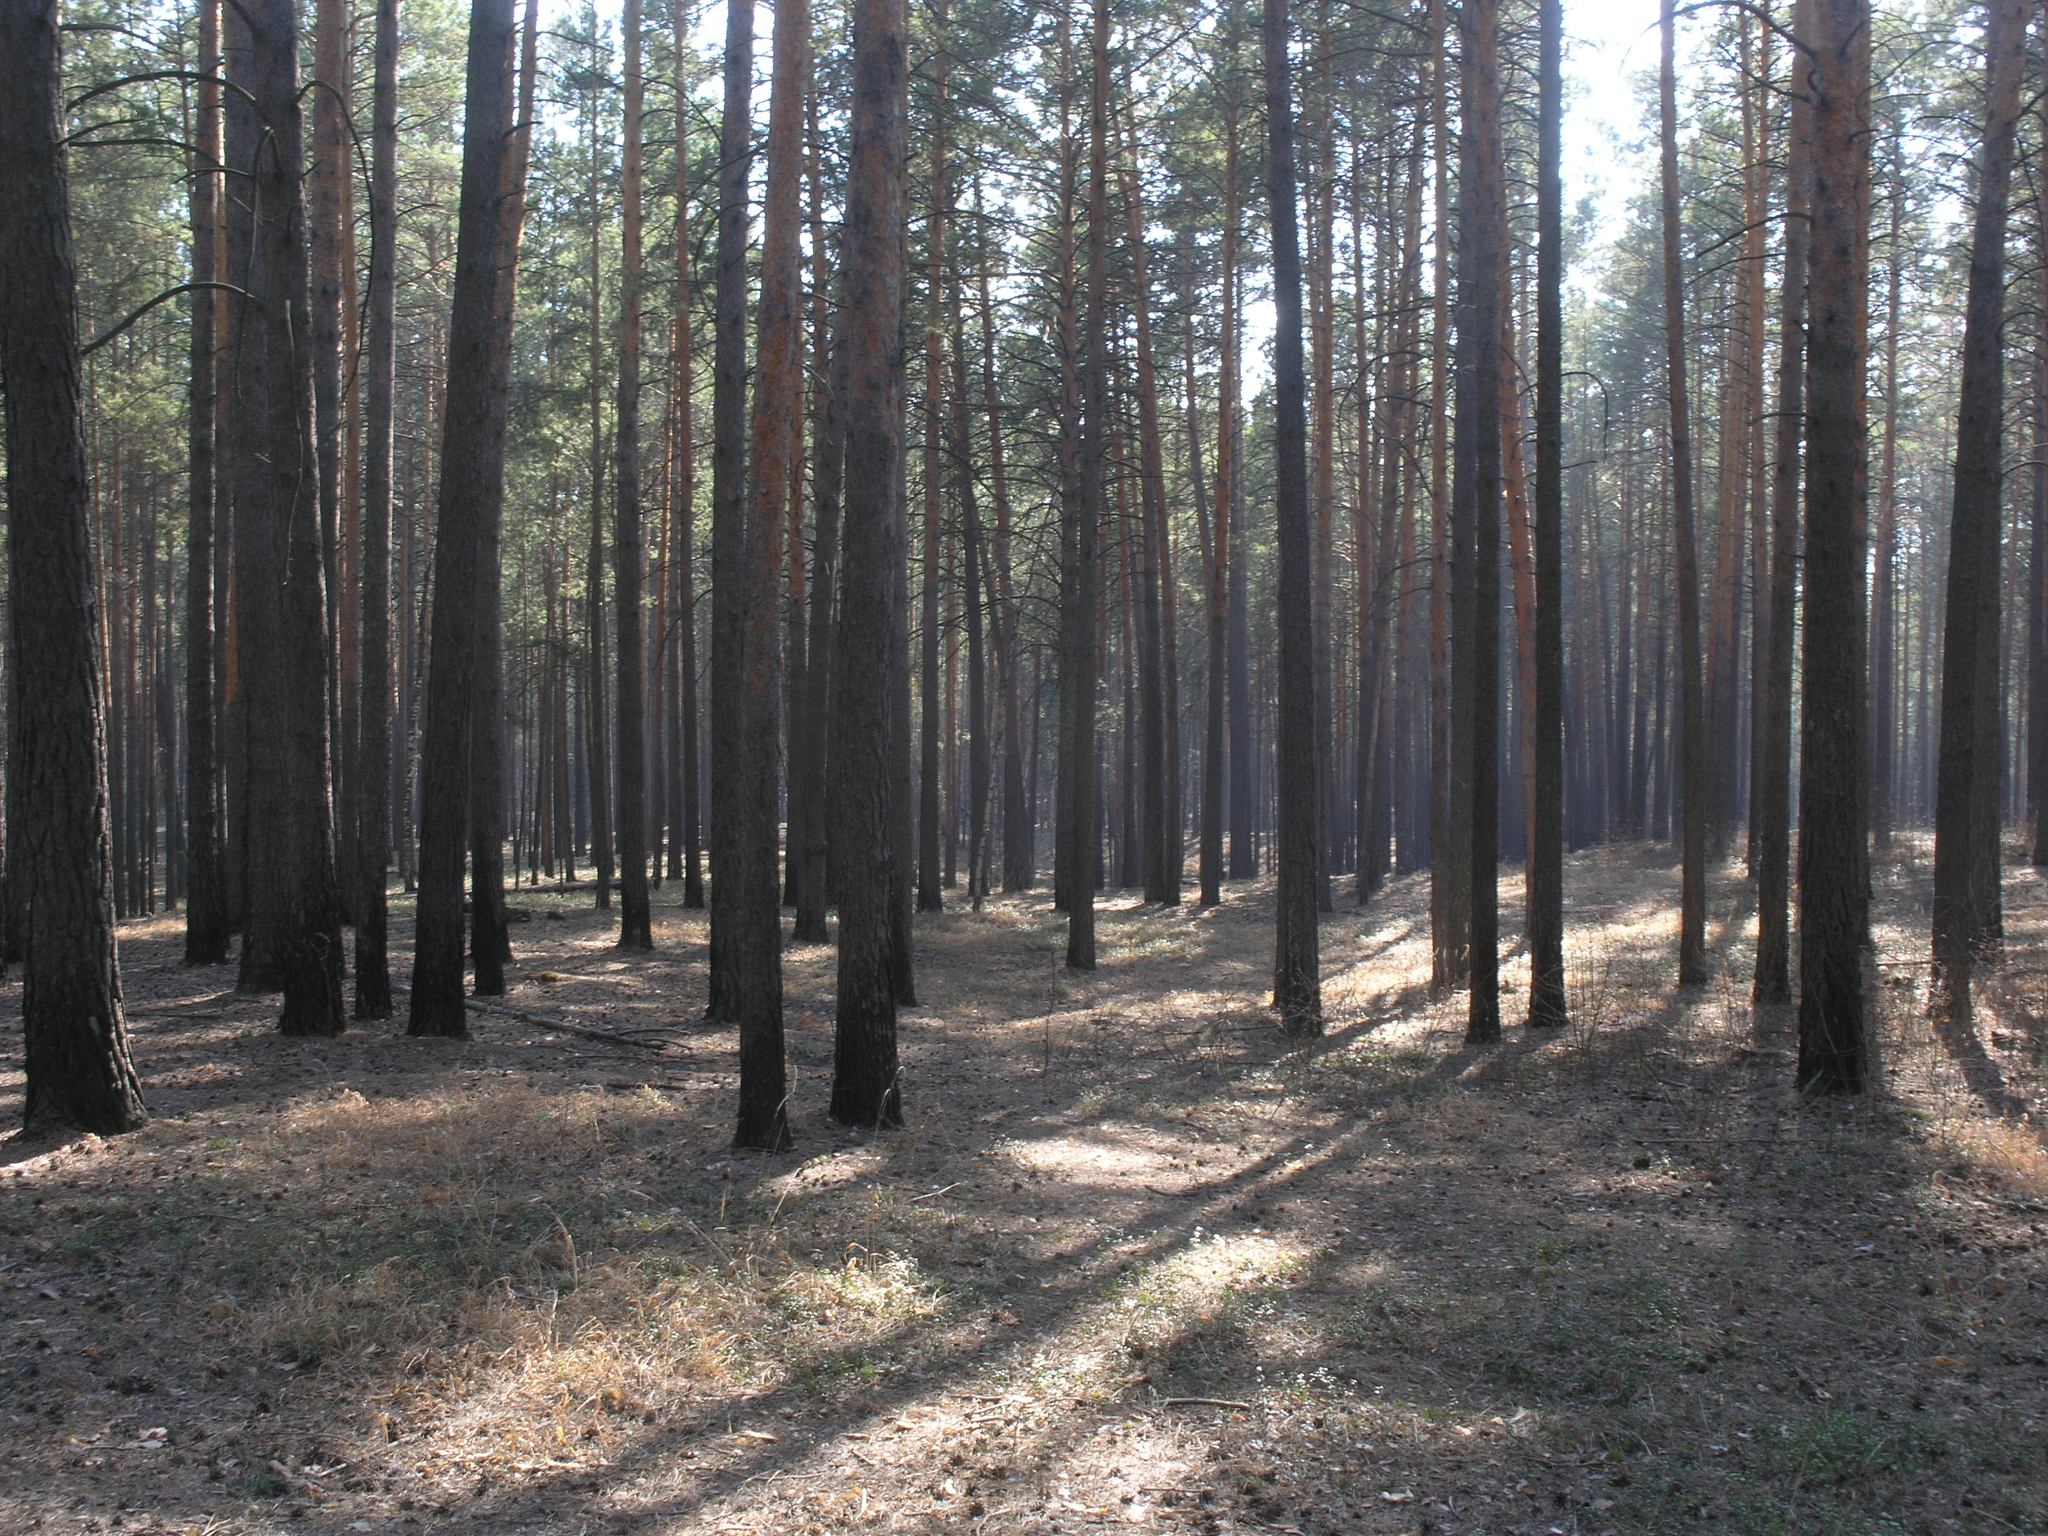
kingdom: Plantae
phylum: Tracheophyta
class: Pinopsida
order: Pinales
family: Pinaceae
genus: Pinus
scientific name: Pinus sylvestris
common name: Scots pine
